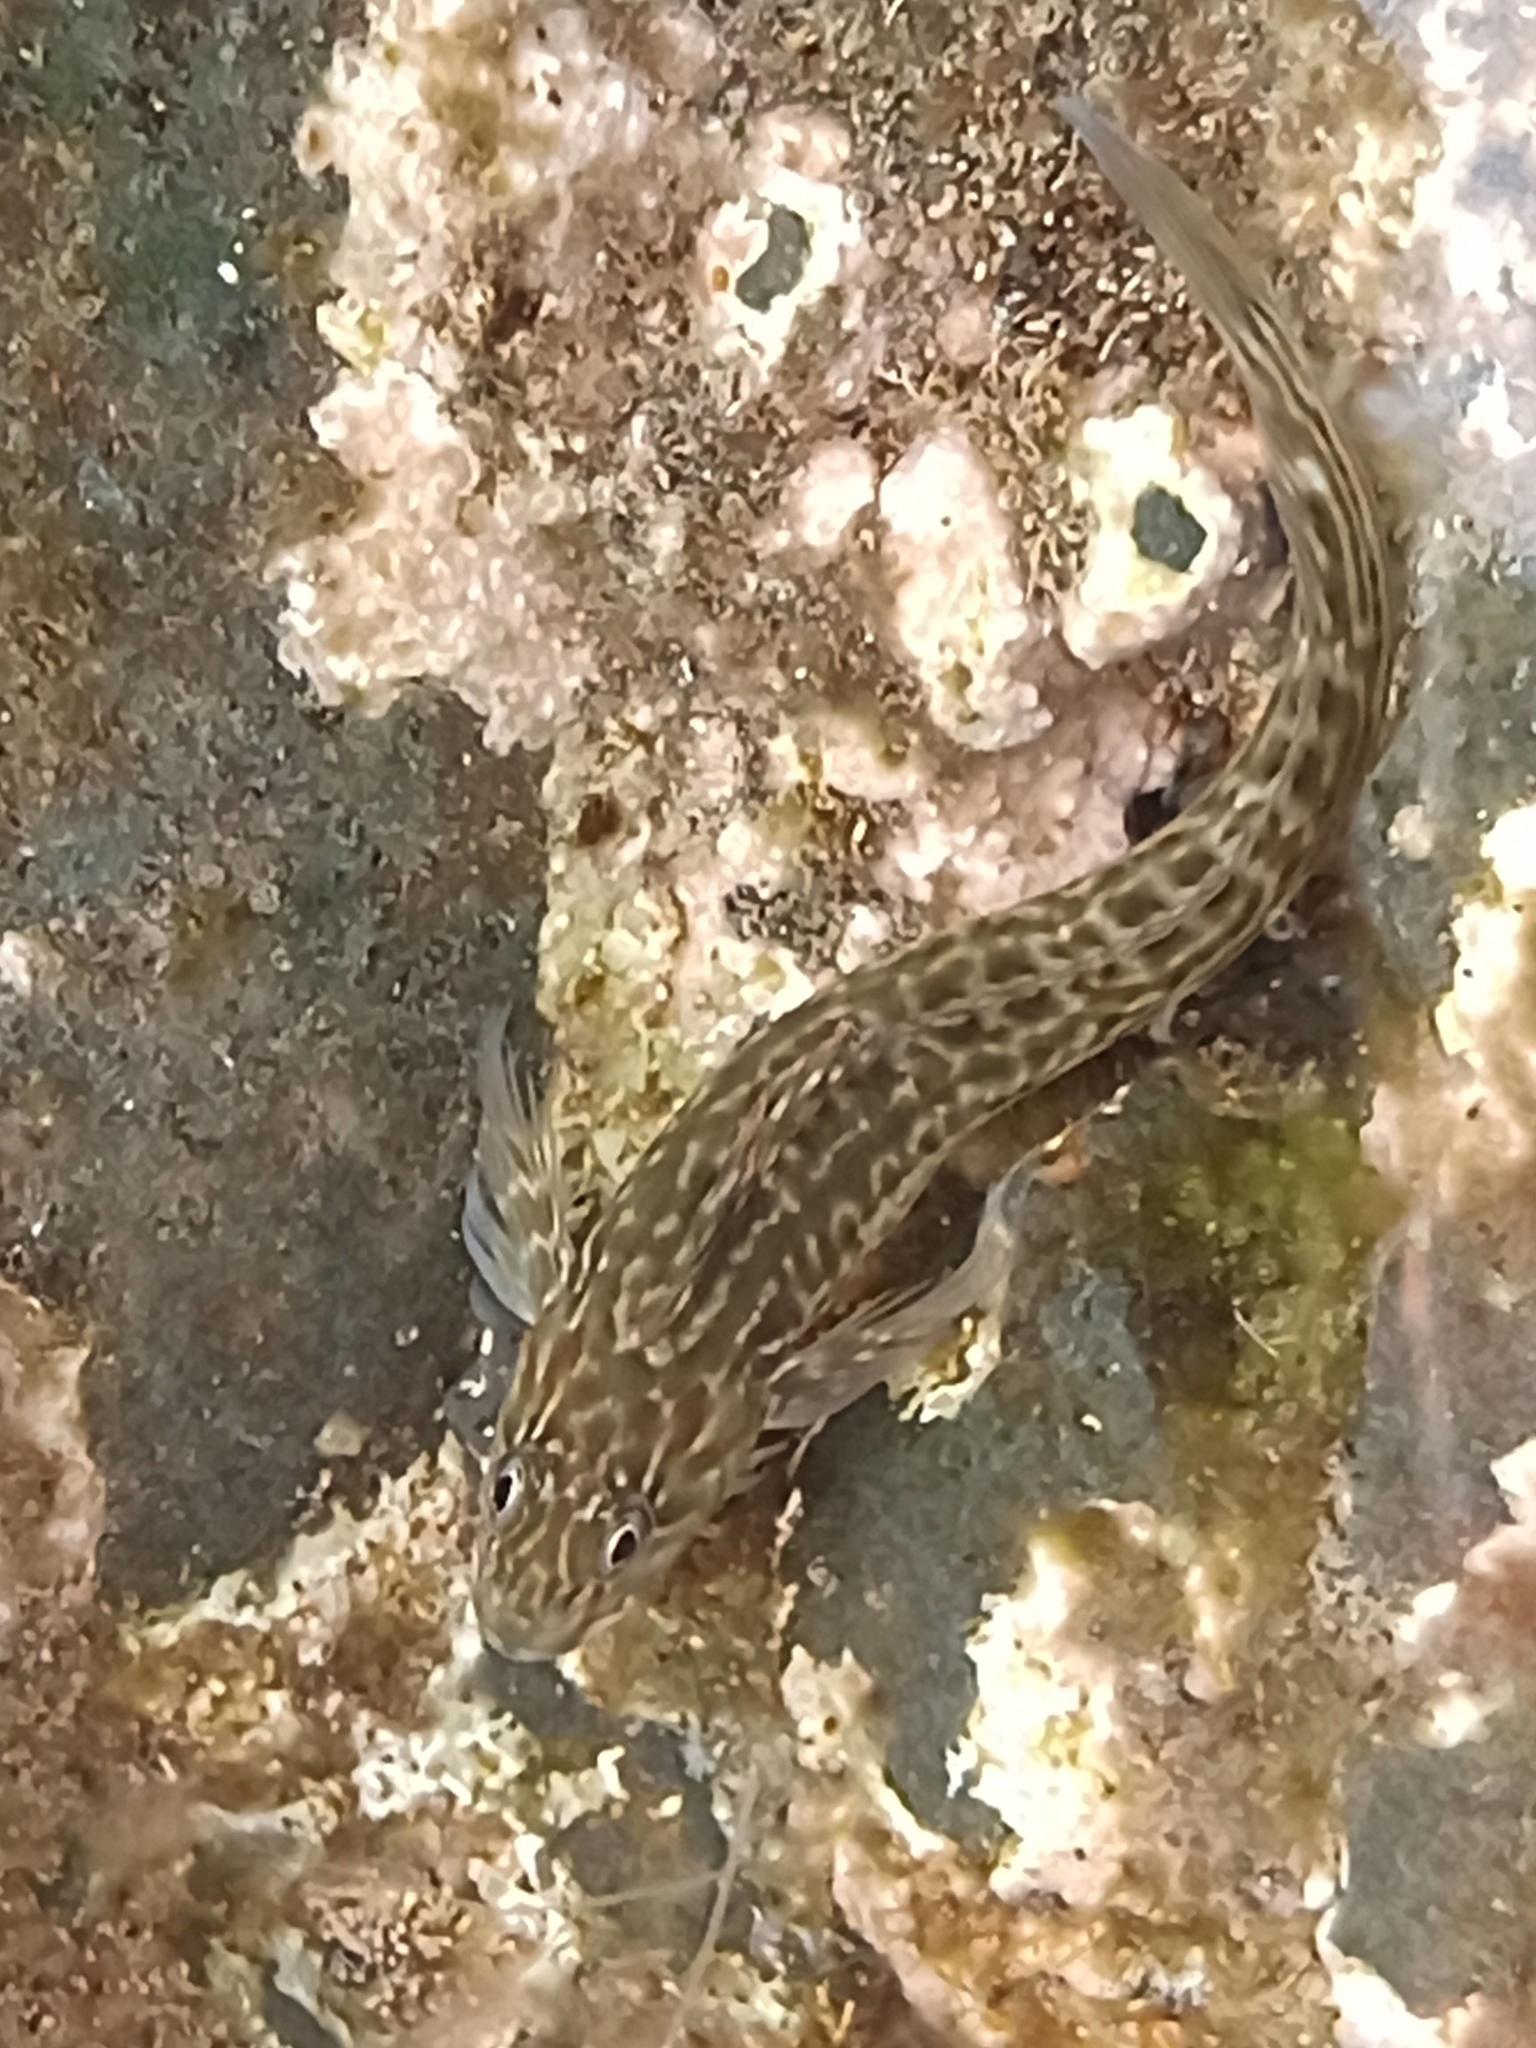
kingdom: Animalia
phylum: Chordata
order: Perciformes
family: Blenniidae
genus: Parablennius
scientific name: Parablennius parvicornis
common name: Rock-pool blenny
